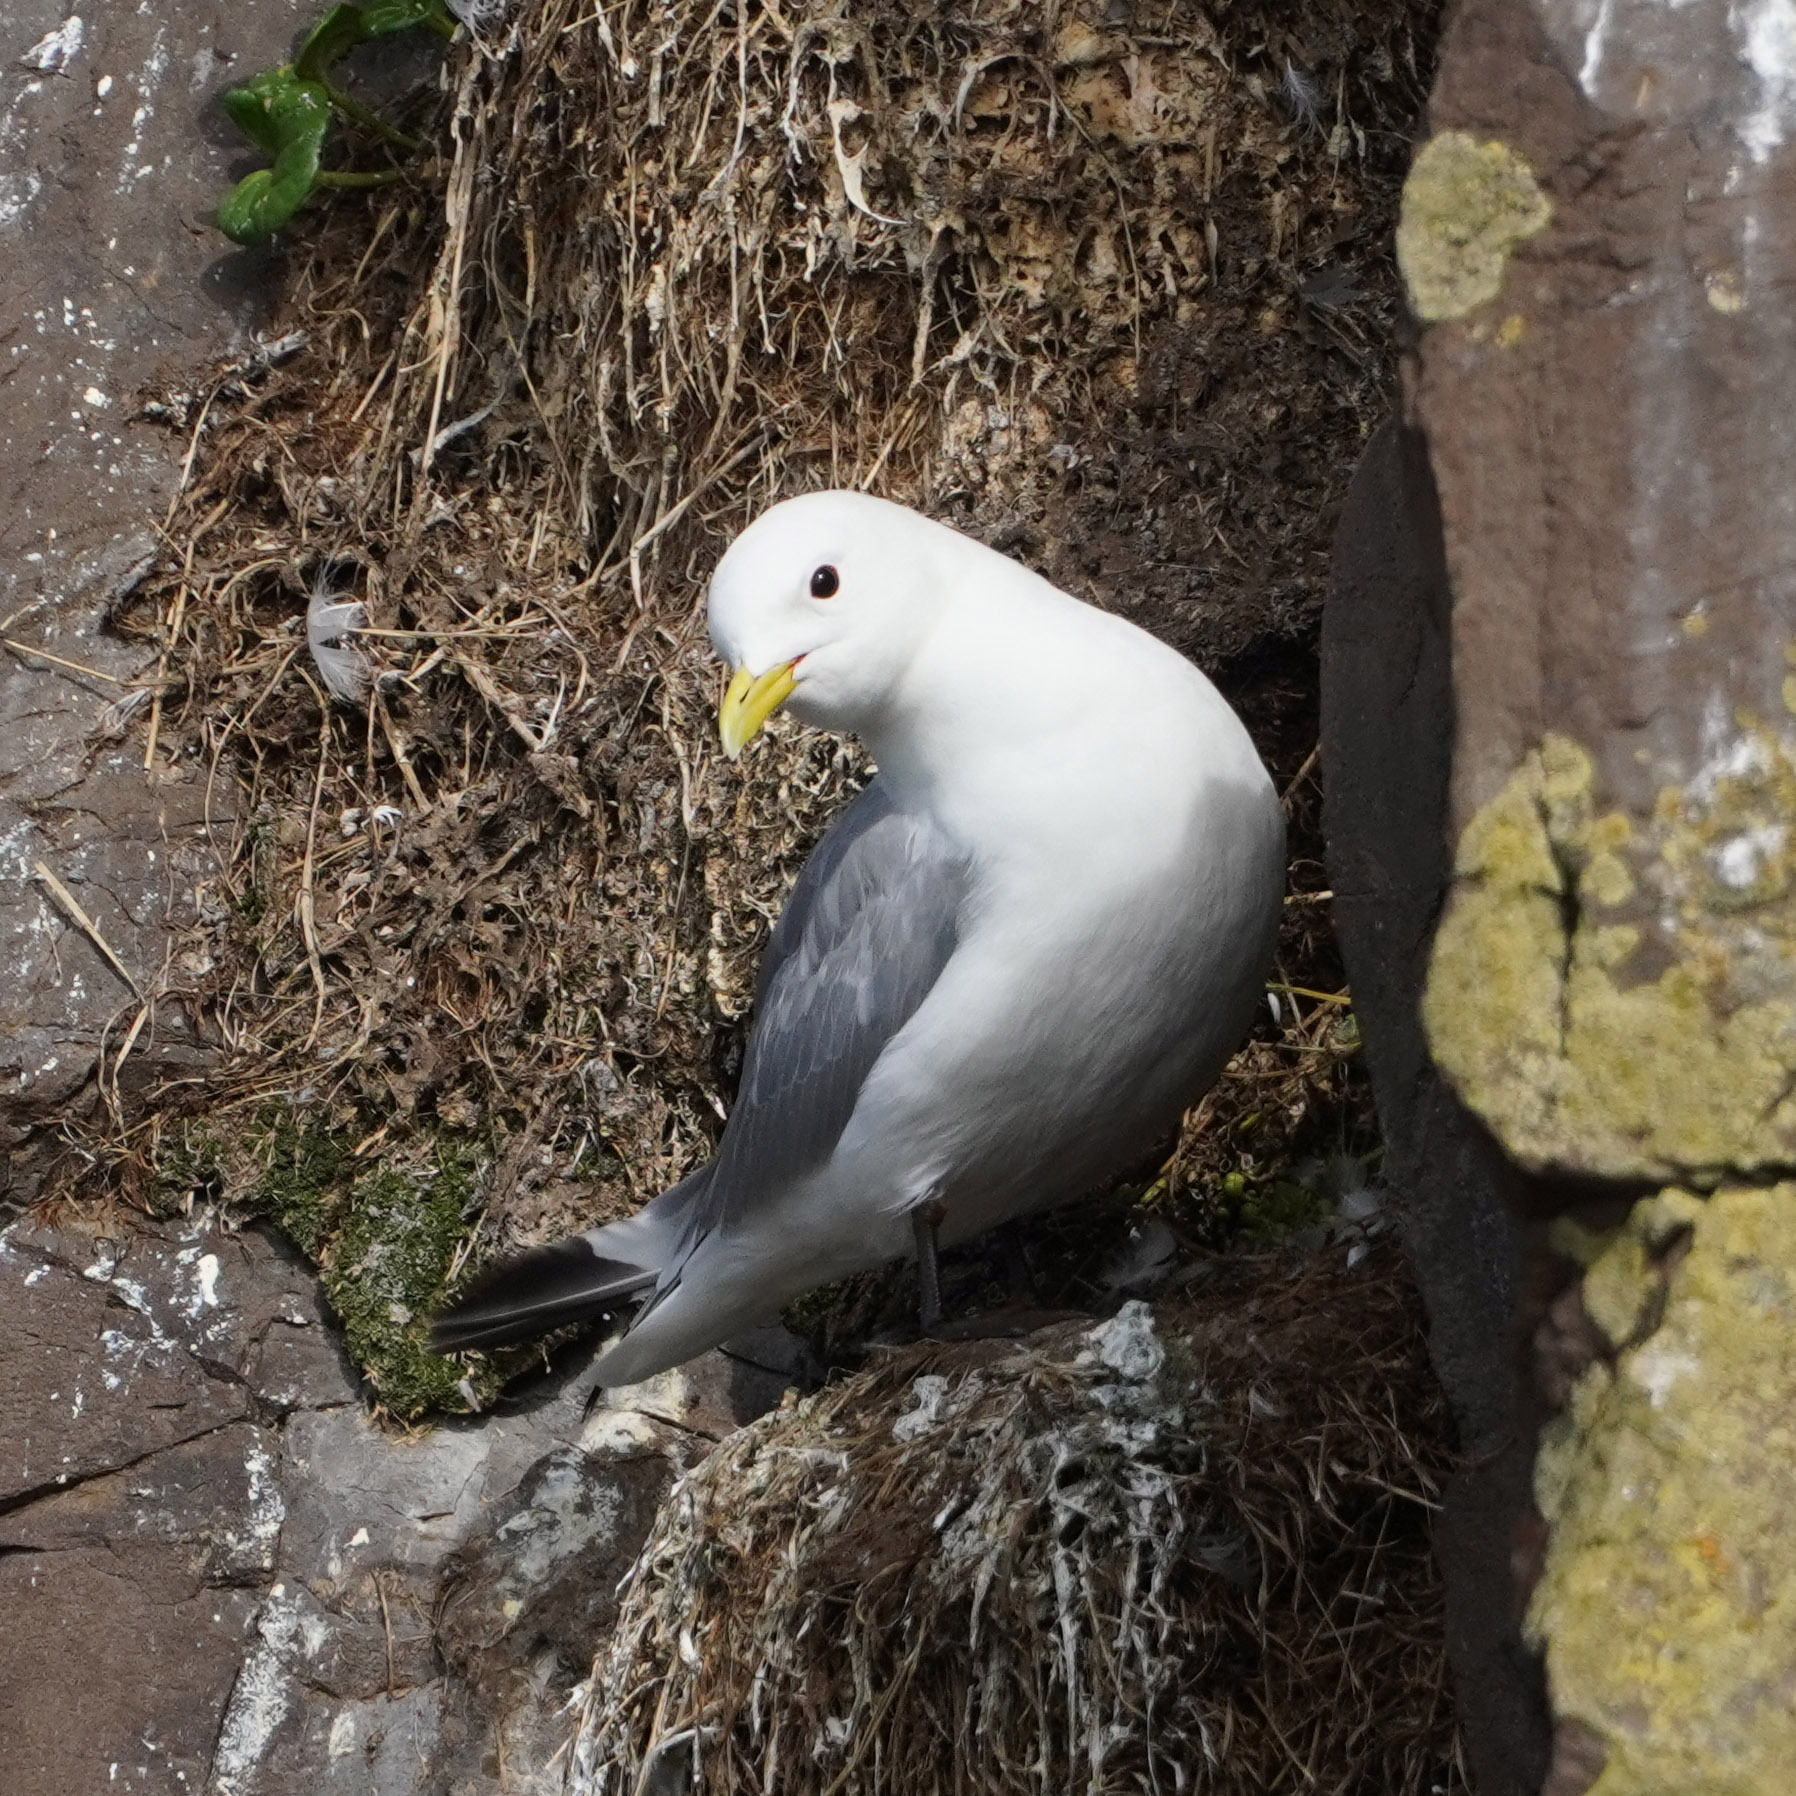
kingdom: Animalia
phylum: Chordata
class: Aves
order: Charadriiformes
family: Laridae
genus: Rissa
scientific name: Rissa tridactyla
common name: Black-legged kittiwake
